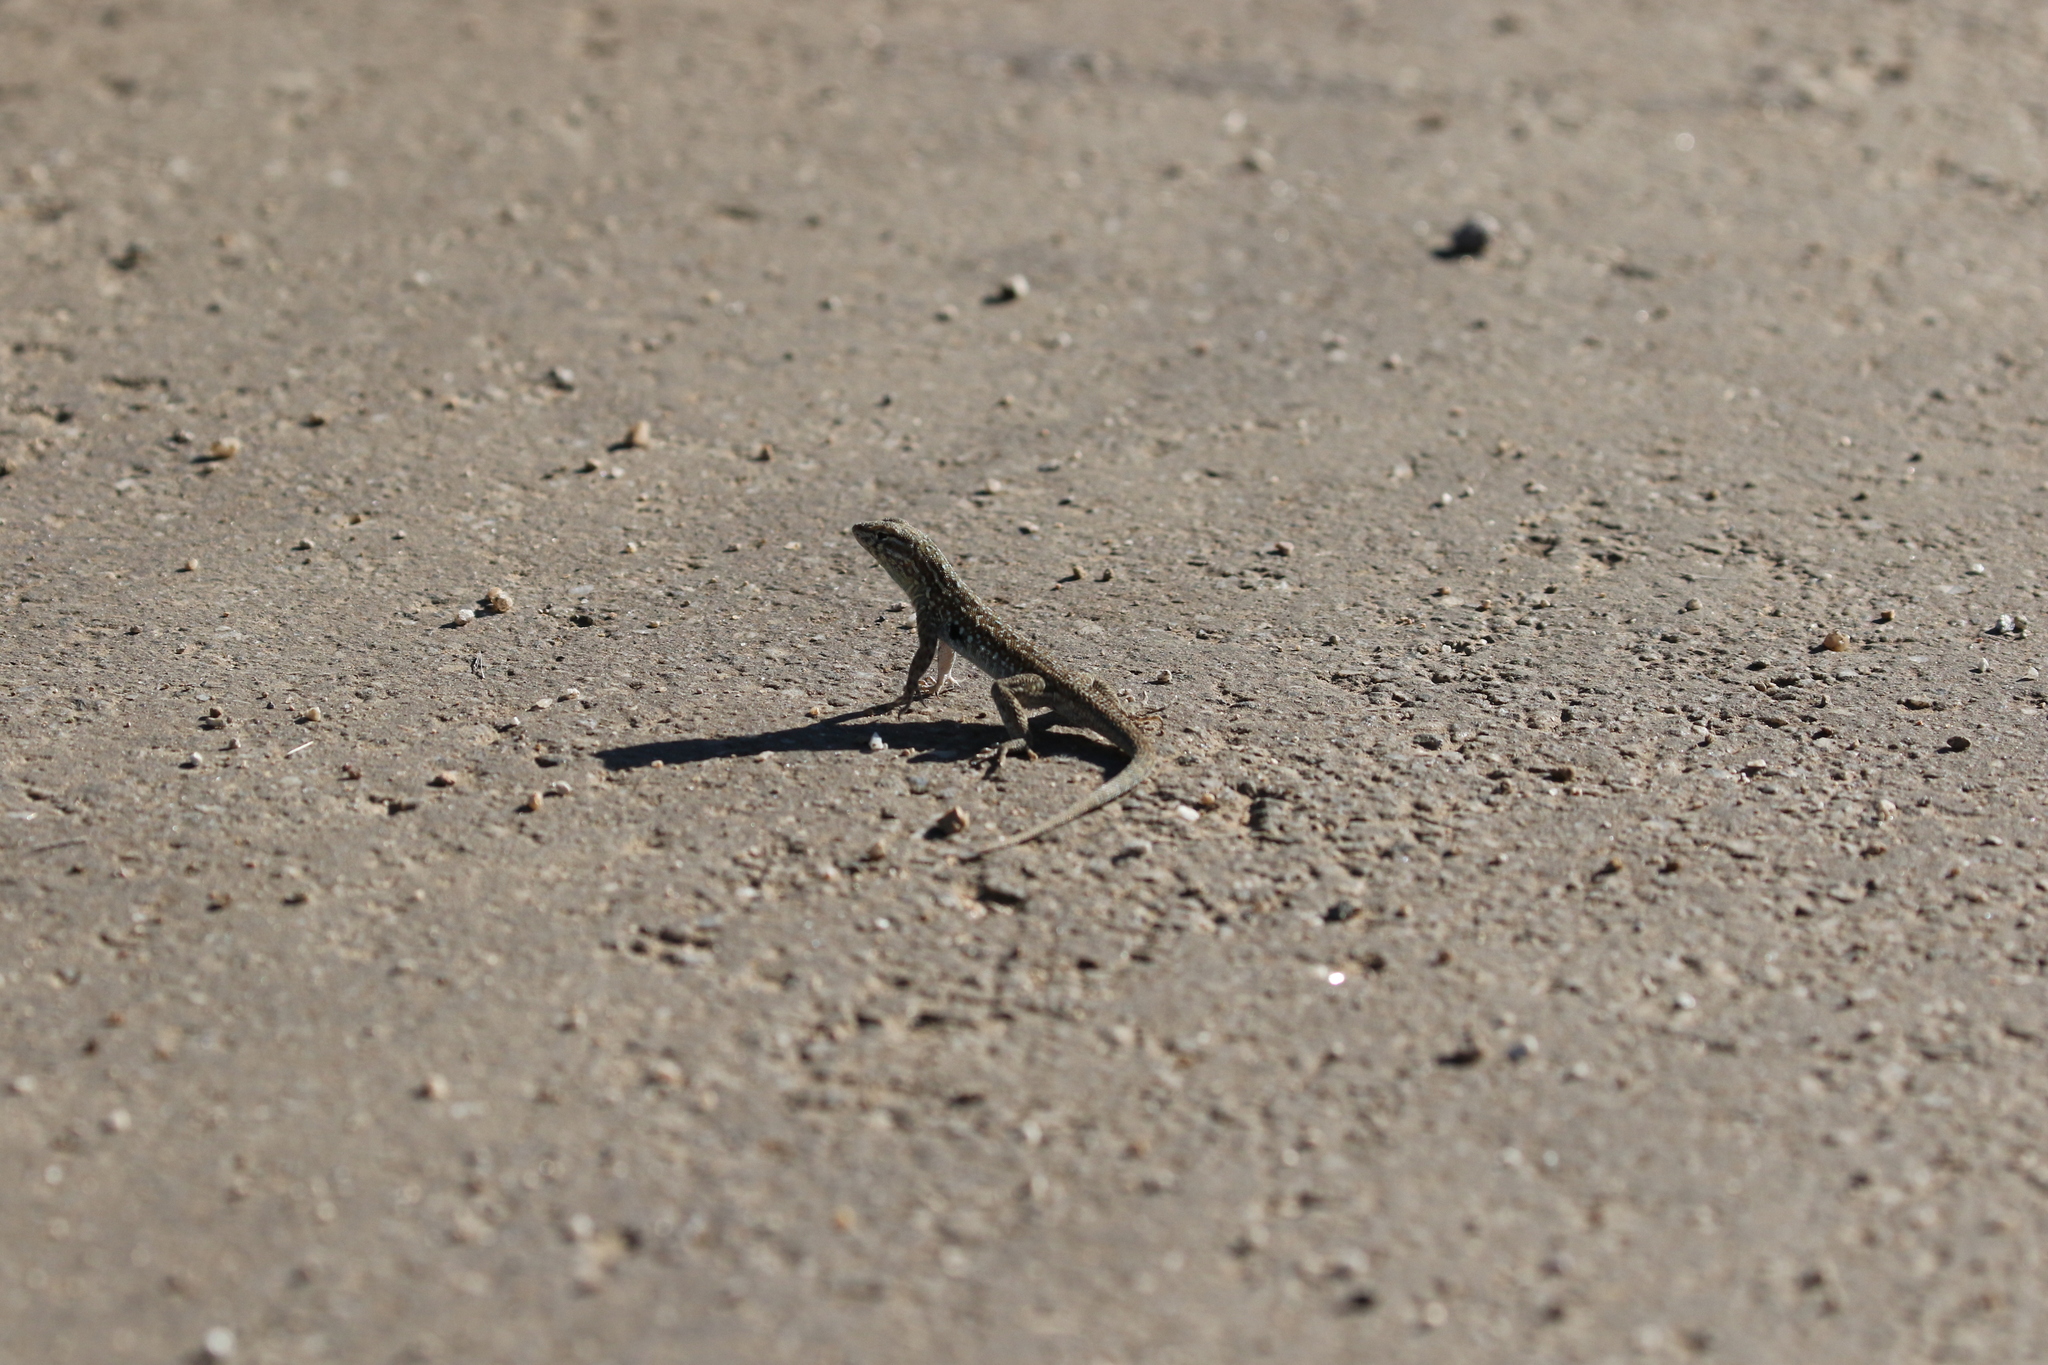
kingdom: Animalia
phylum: Chordata
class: Squamata
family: Phrynosomatidae
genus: Uta
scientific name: Uta stansburiana
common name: Side-blotched lizard
